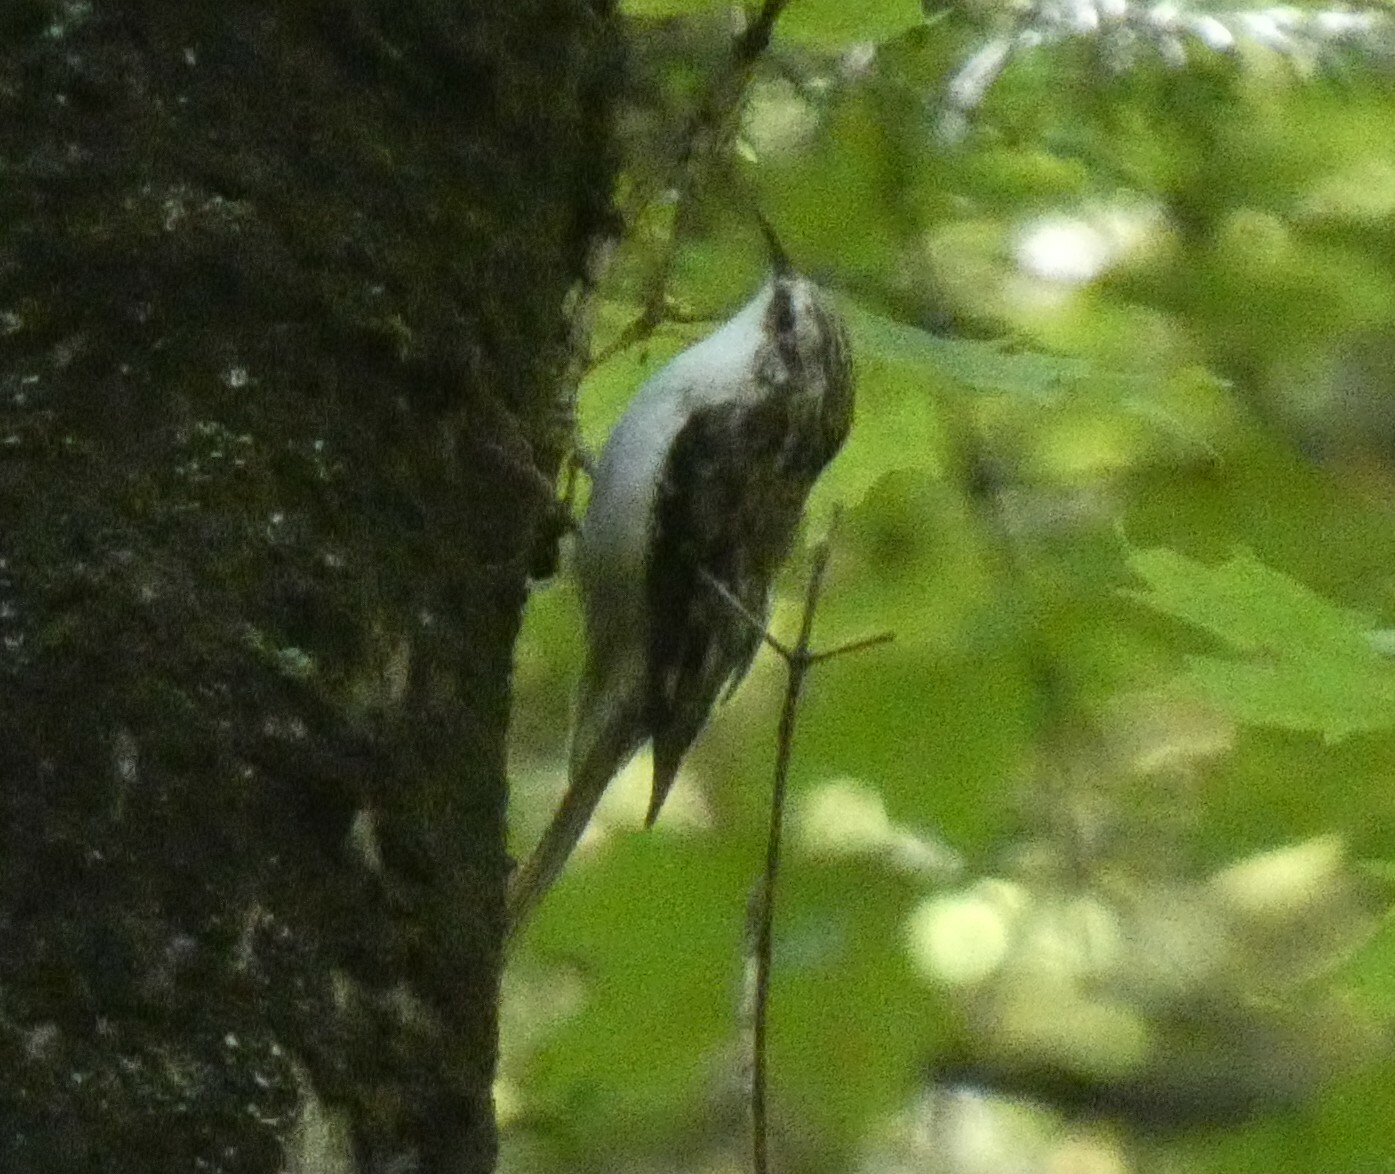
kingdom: Animalia
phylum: Chordata
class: Aves
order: Passeriformes
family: Certhiidae
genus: Certhia
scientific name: Certhia americana
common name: Brown creeper
